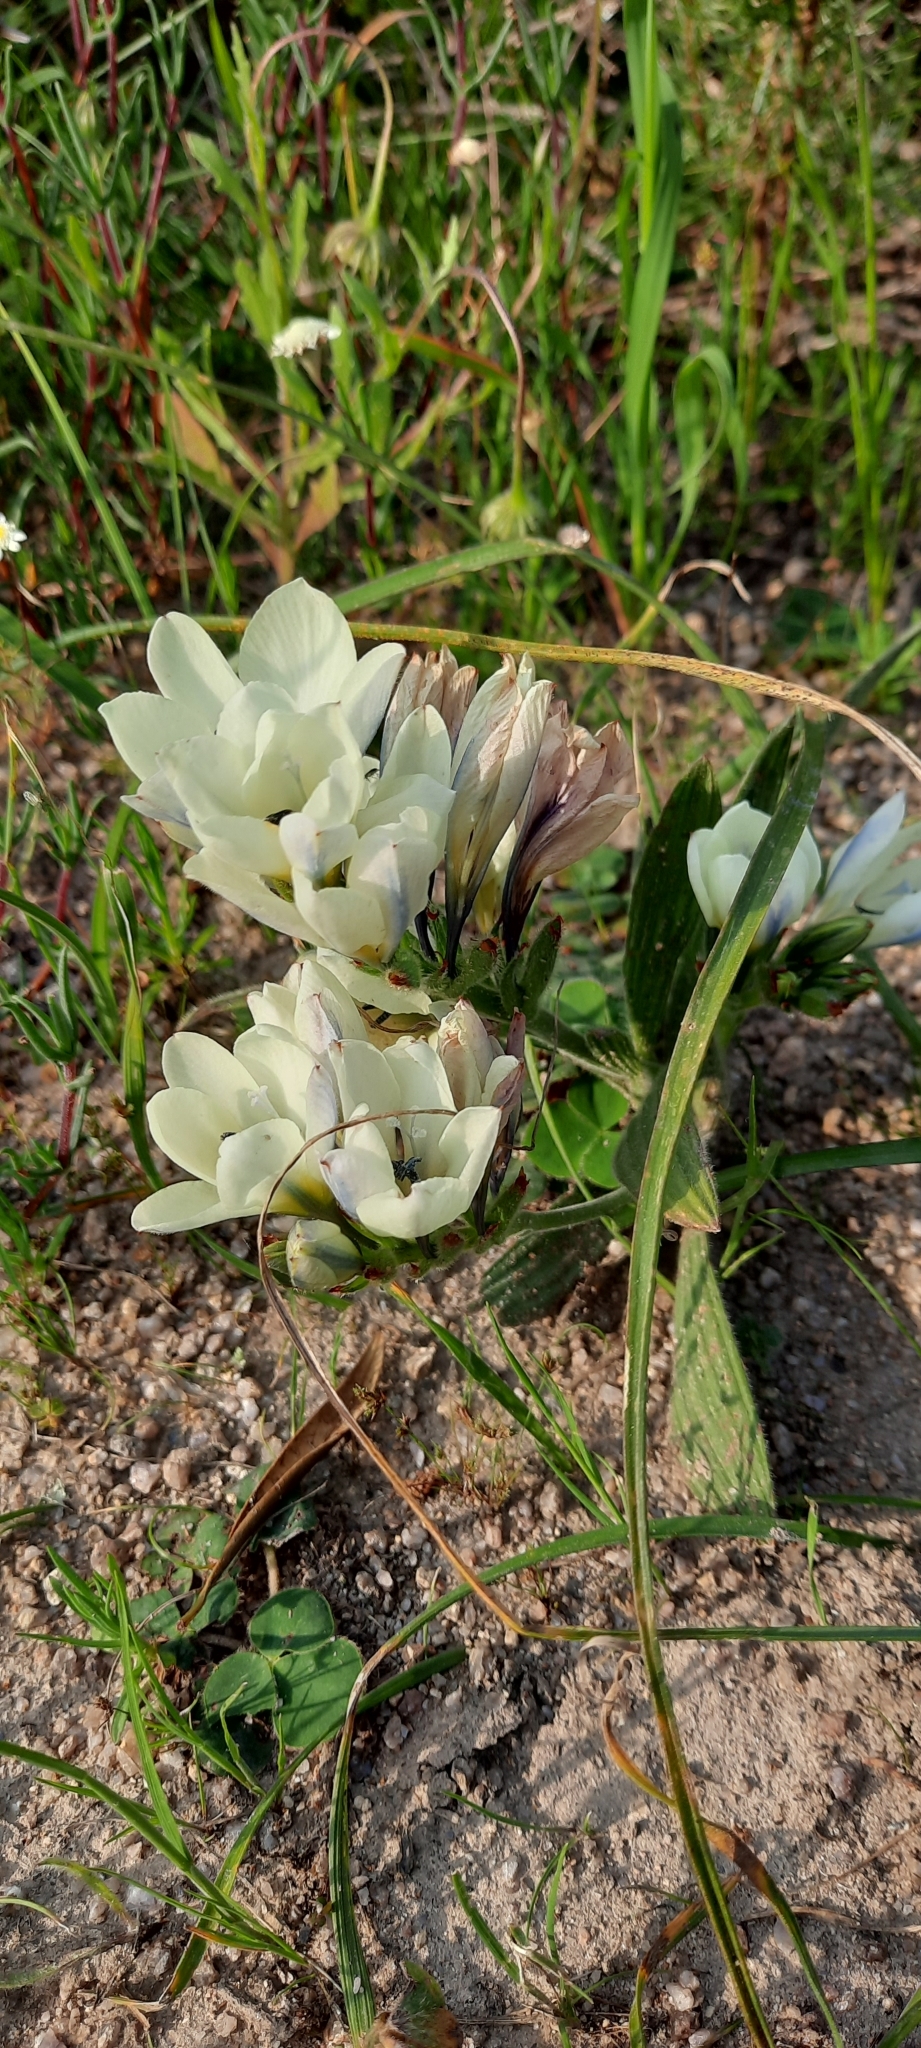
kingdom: Plantae
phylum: Tracheophyta
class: Liliopsida
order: Asparagales
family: Iridaceae
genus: Babiana
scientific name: Babiana nervosa
